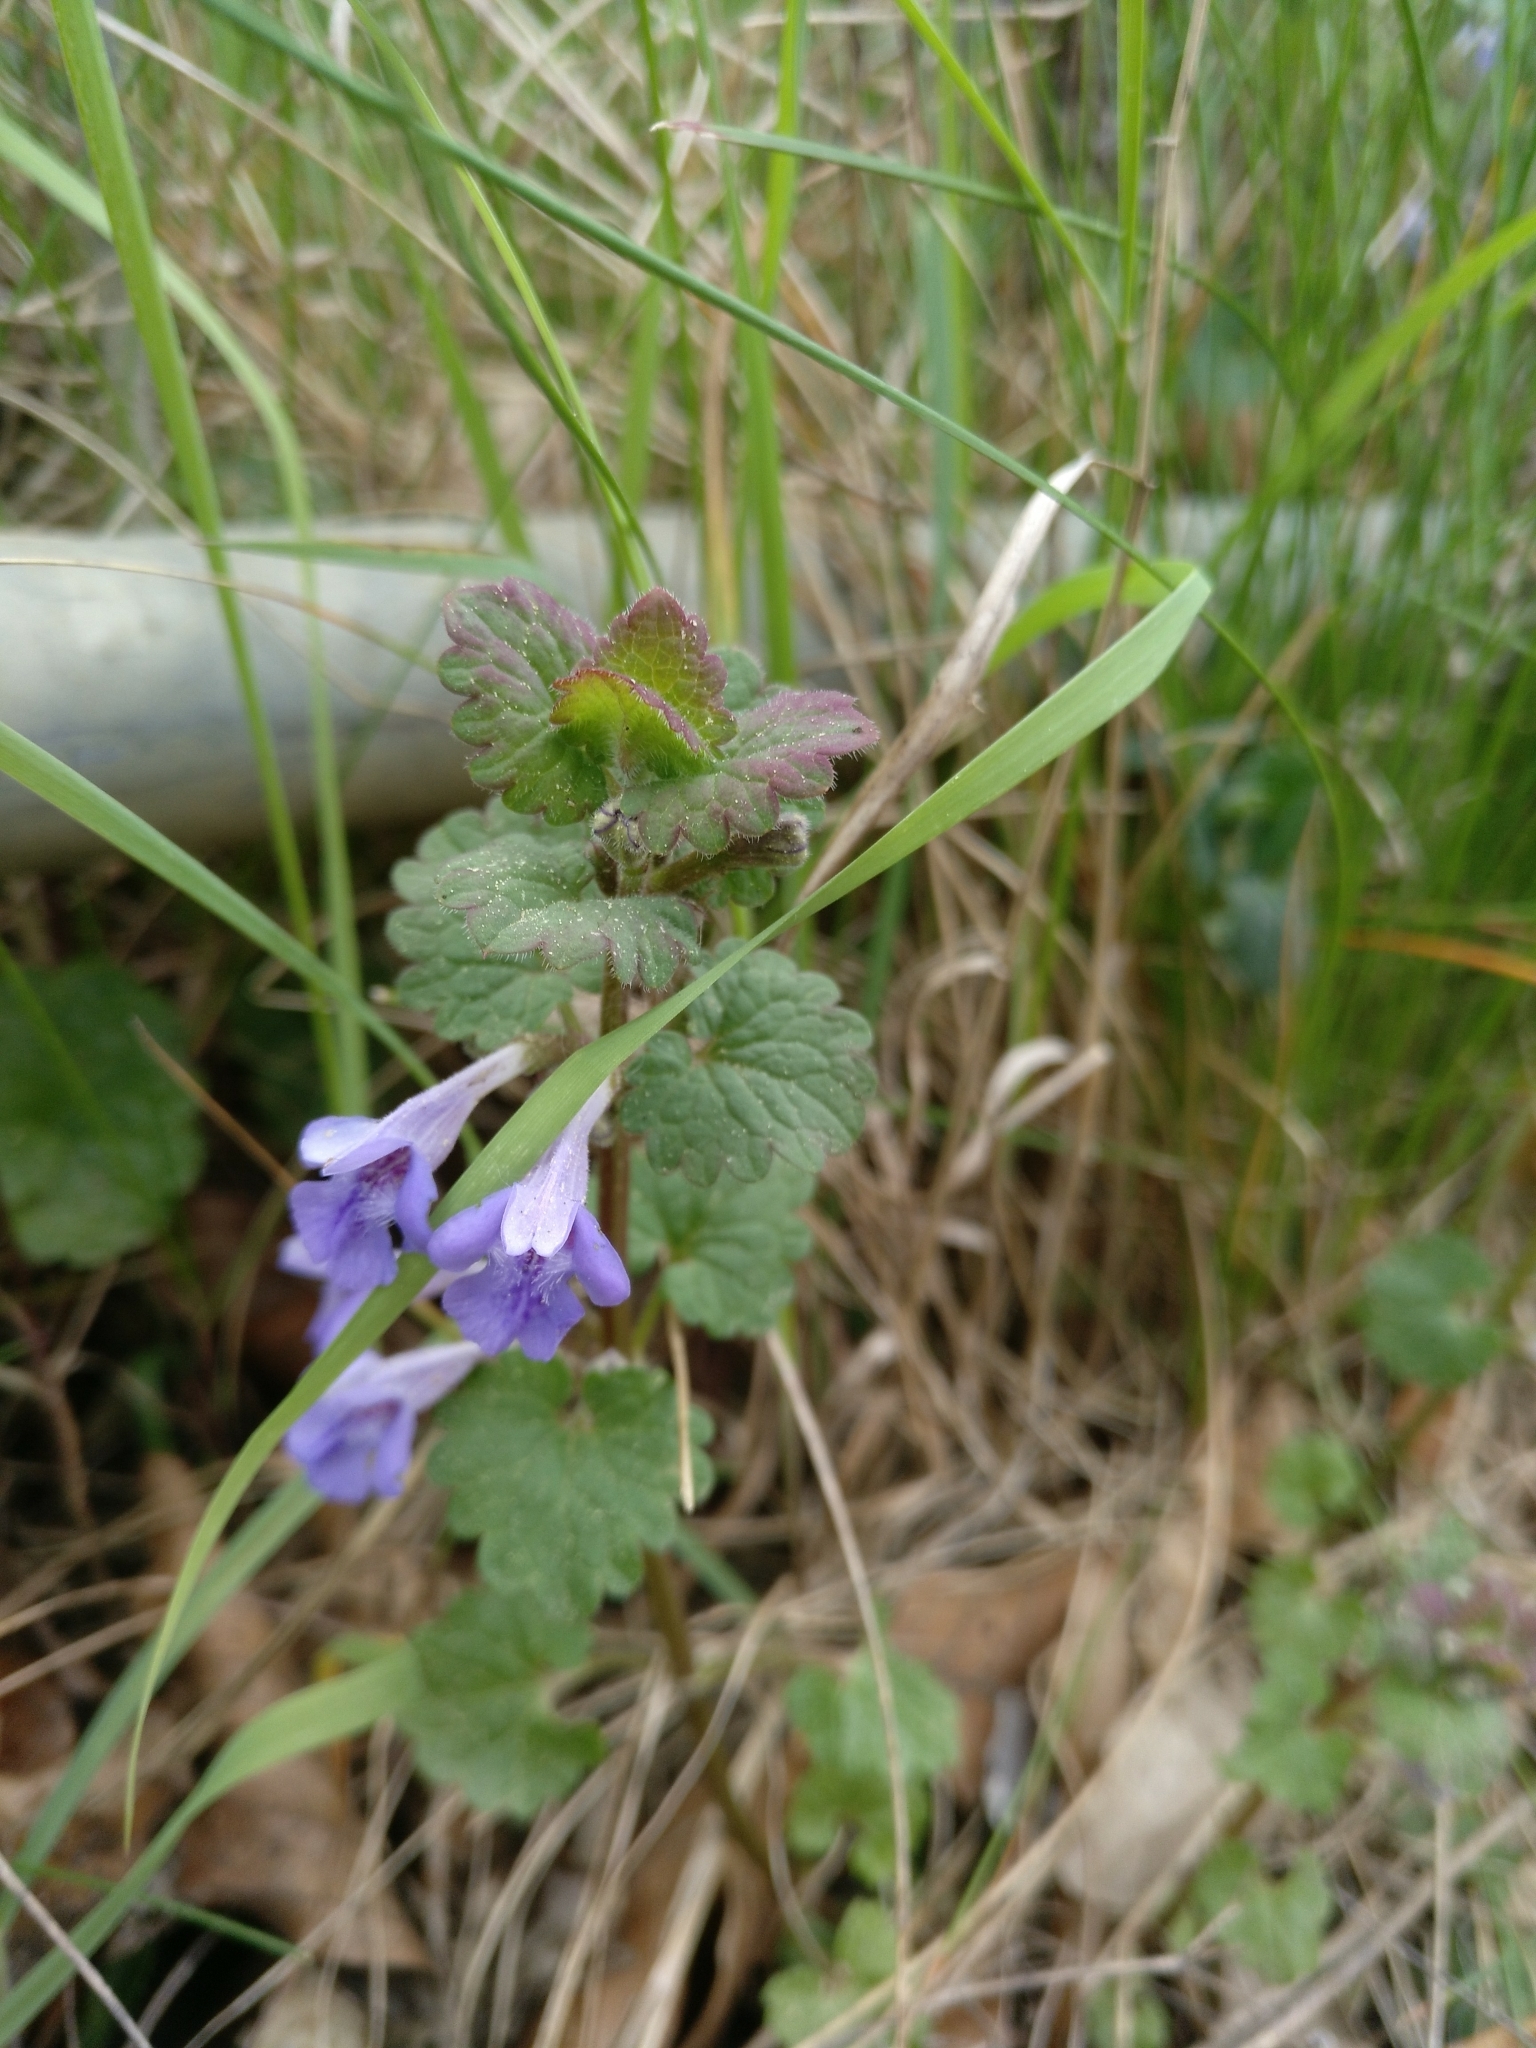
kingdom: Plantae
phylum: Tracheophyta
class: Magnoliopsida
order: Lamiales
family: Lamiaceae
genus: Glechoma
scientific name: Glechoma hederacea
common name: Ground ivy
